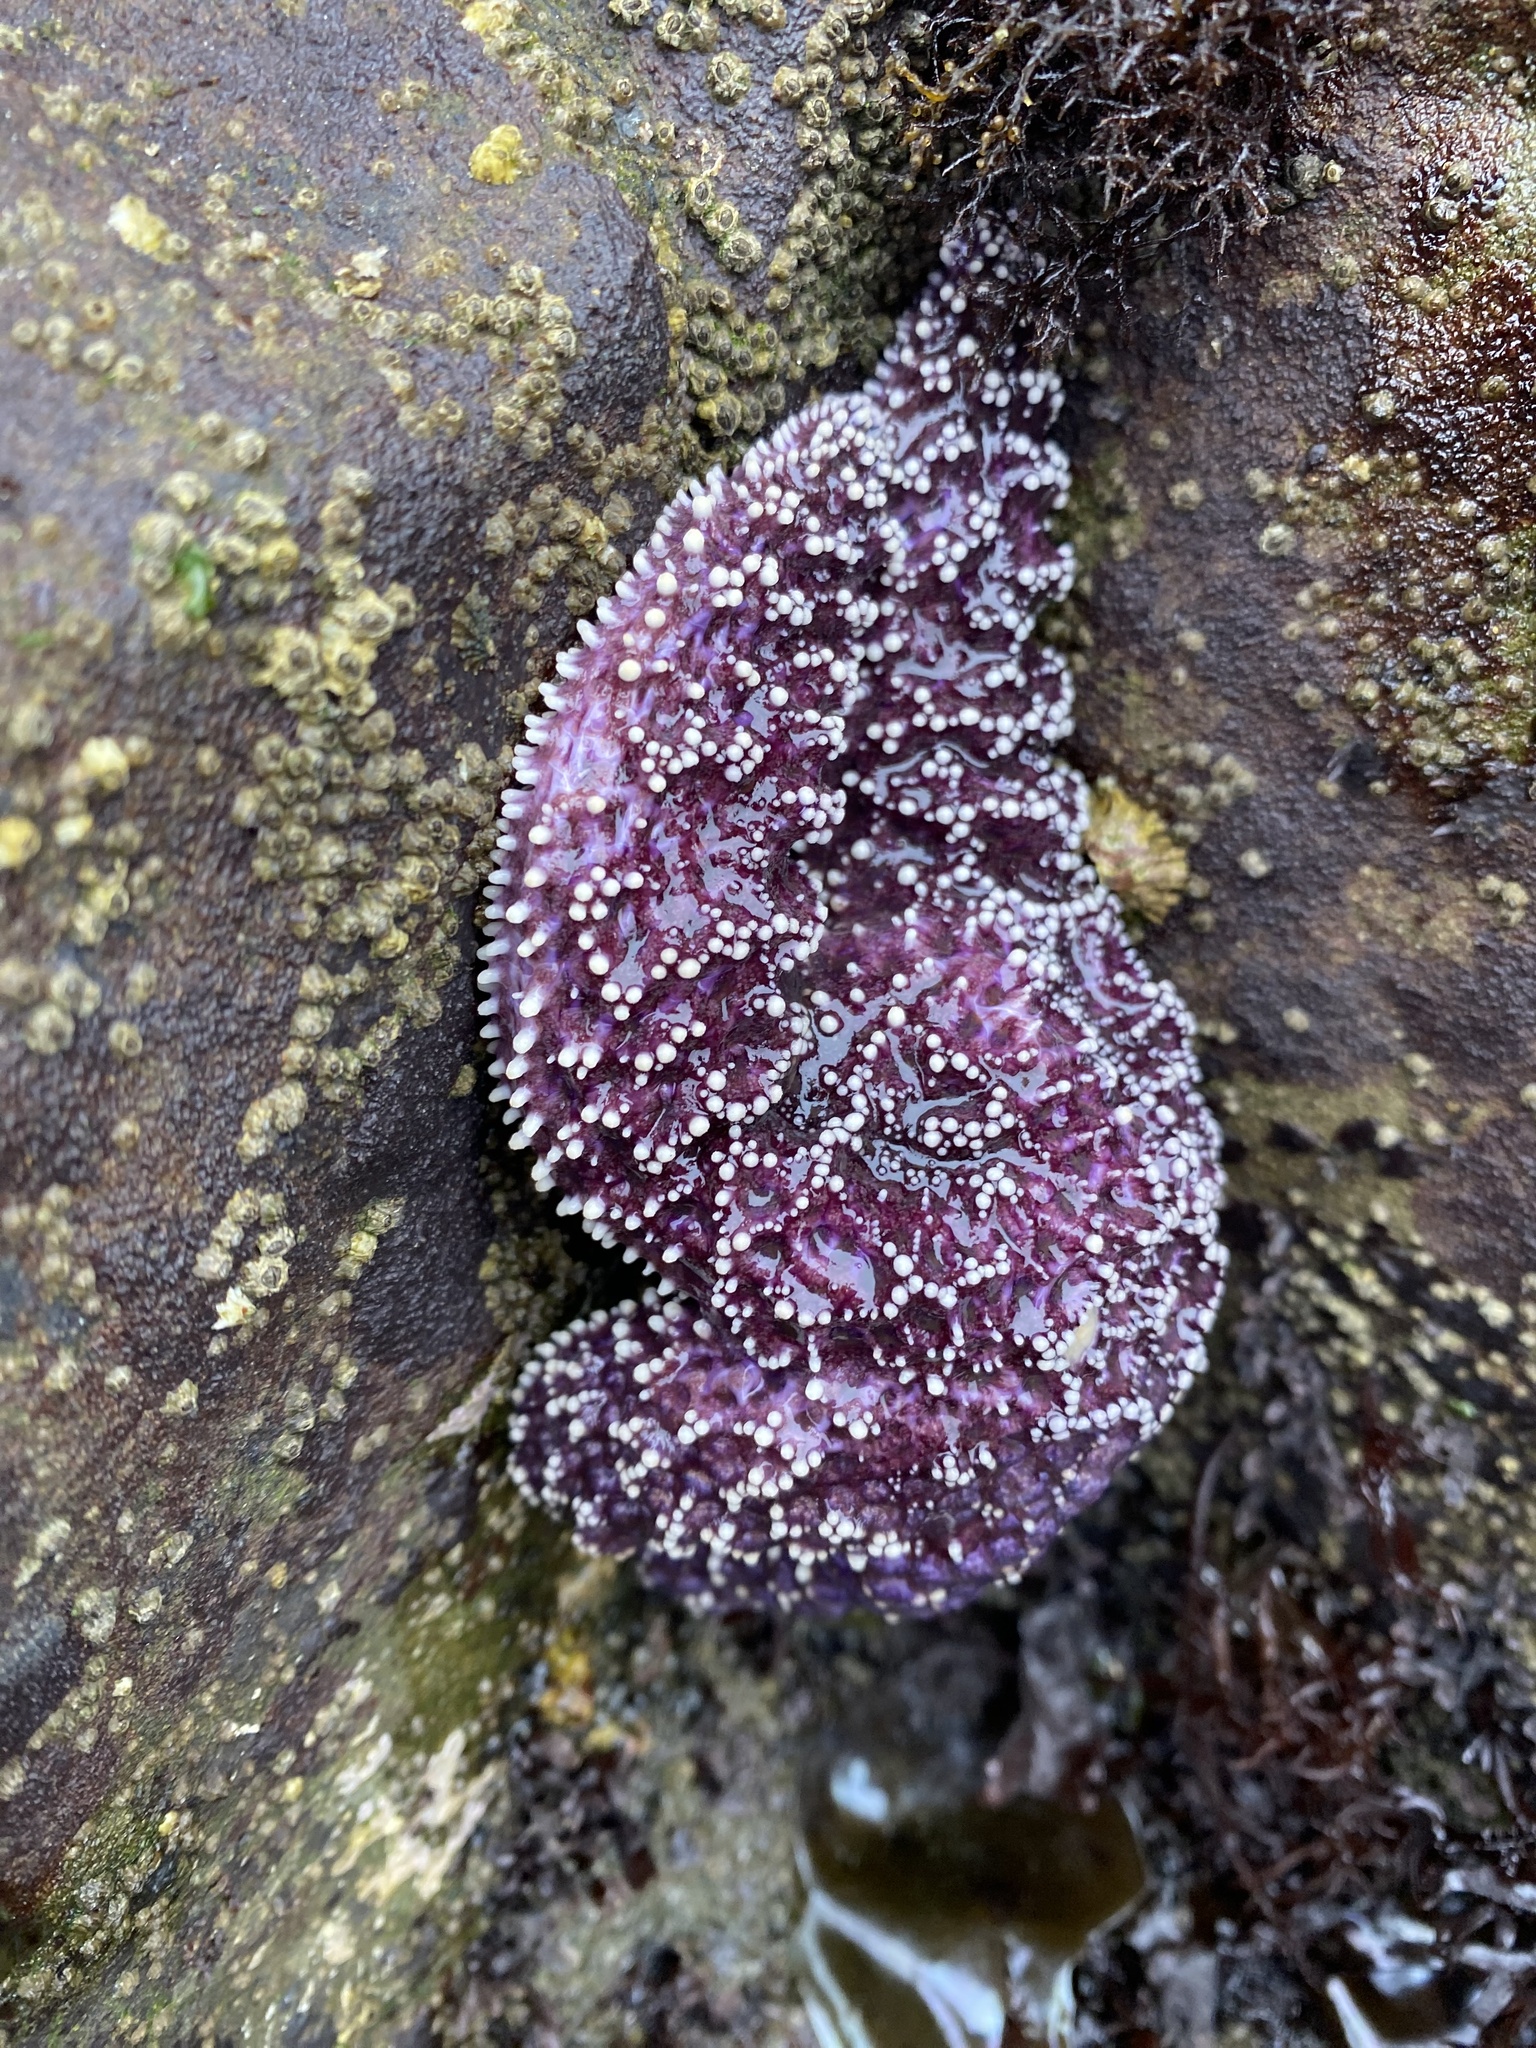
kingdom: Animalia
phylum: Echinodermata
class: Asteroidea
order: Forcipulatida
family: Asteriidae
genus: Pisaster
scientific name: Pisaster ochraceus
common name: Ochre stars
